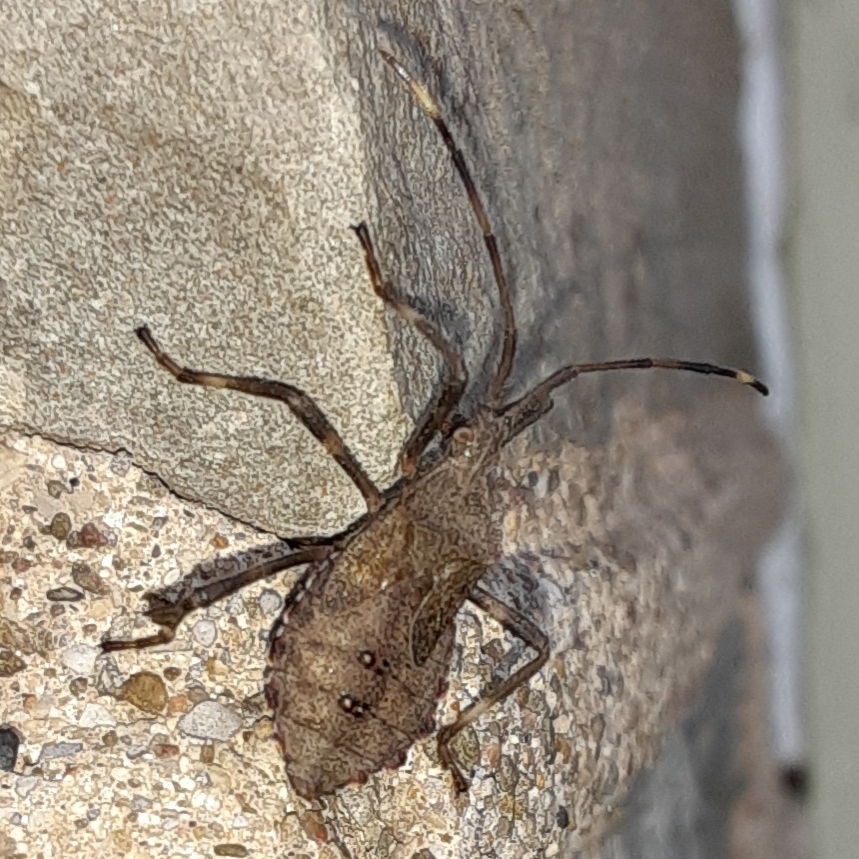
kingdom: Animalia
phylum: Arthropoda
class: Insecta
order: Hemiptera
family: Coreidae
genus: Acanthocephala
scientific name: Acanthocephala terminalis
